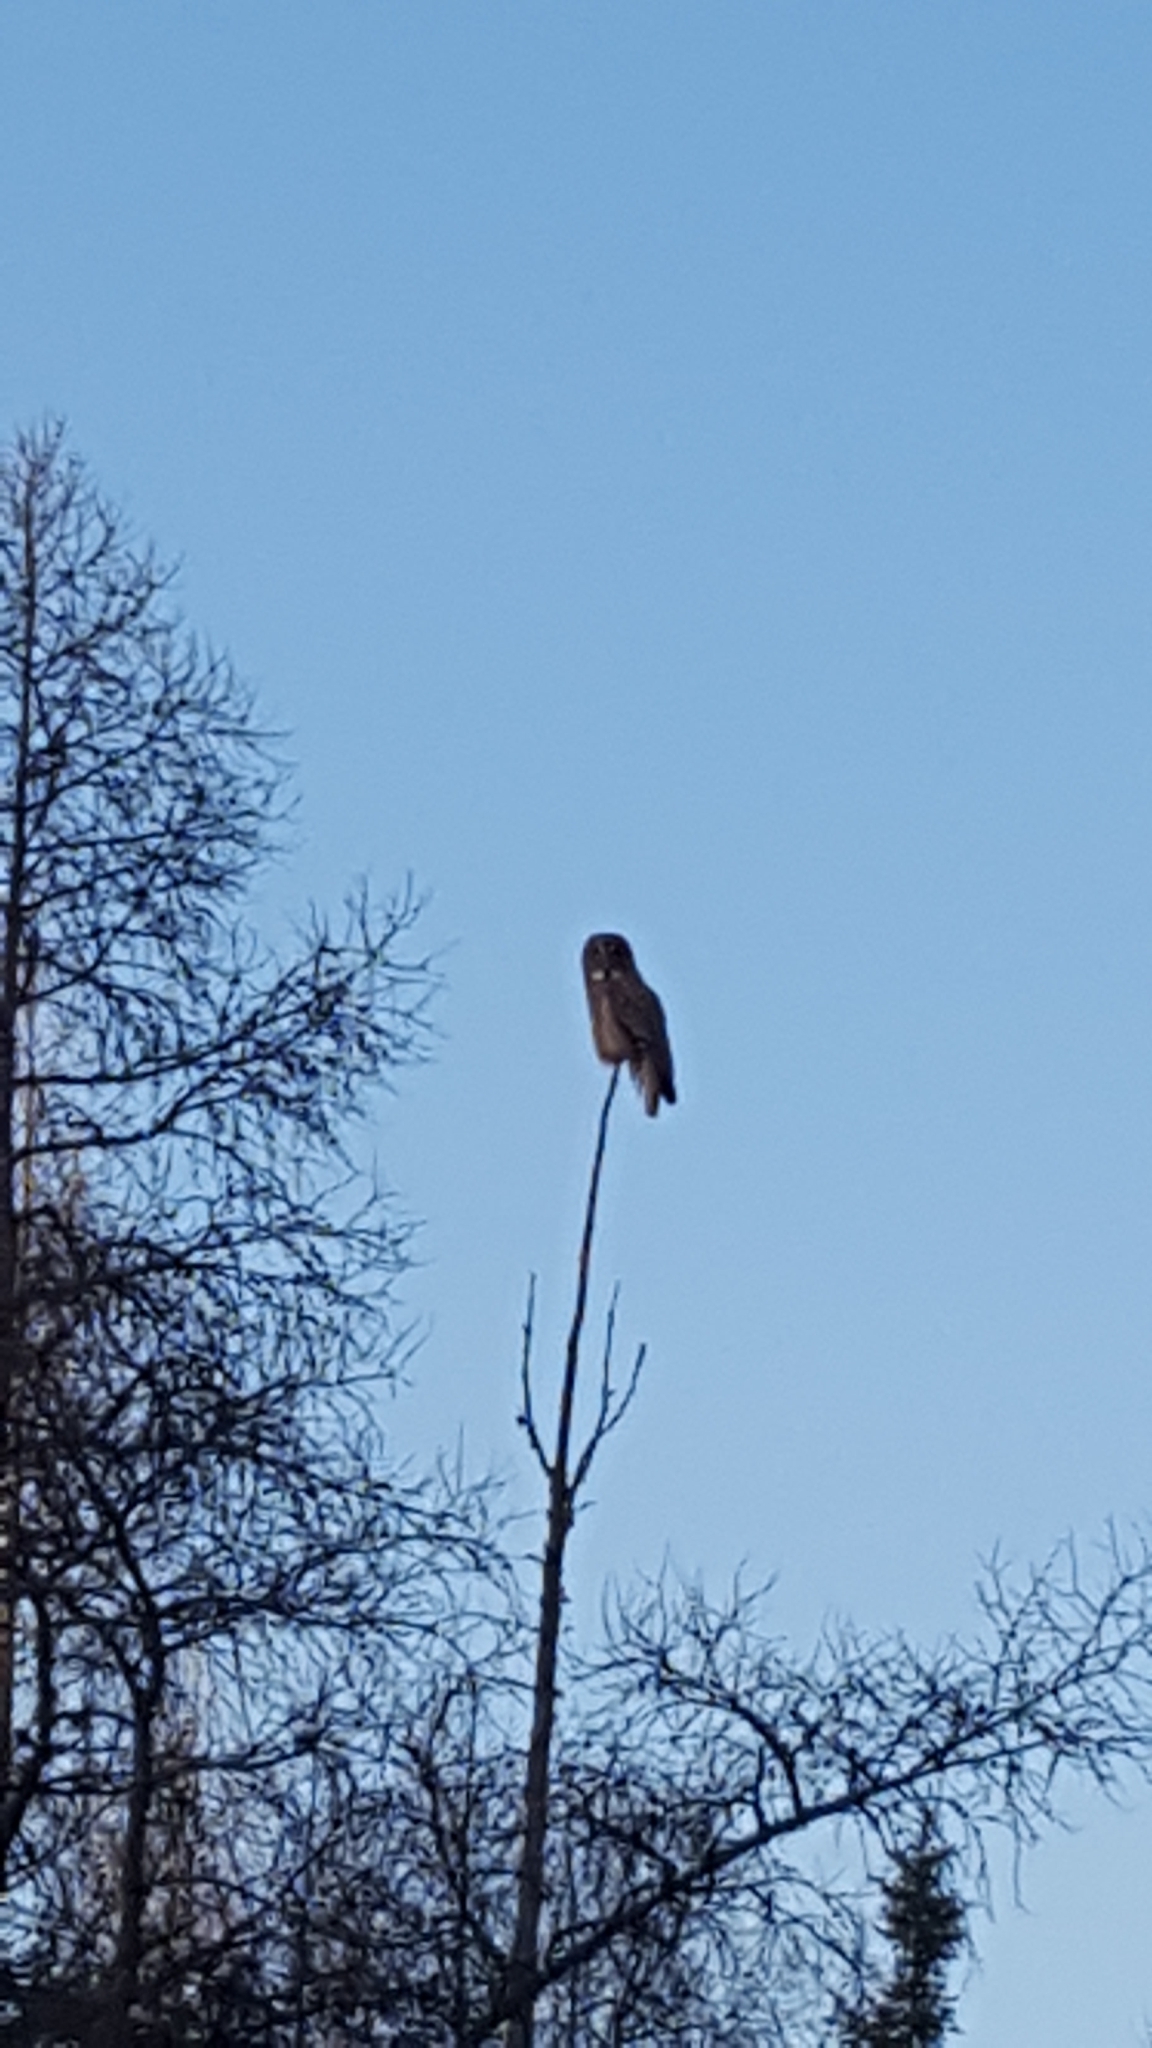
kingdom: Animalia
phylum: Chordata
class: Aves
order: Strigiformes
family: Strigidae
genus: Strix
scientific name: Strix nebulosa
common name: Great grey owl
